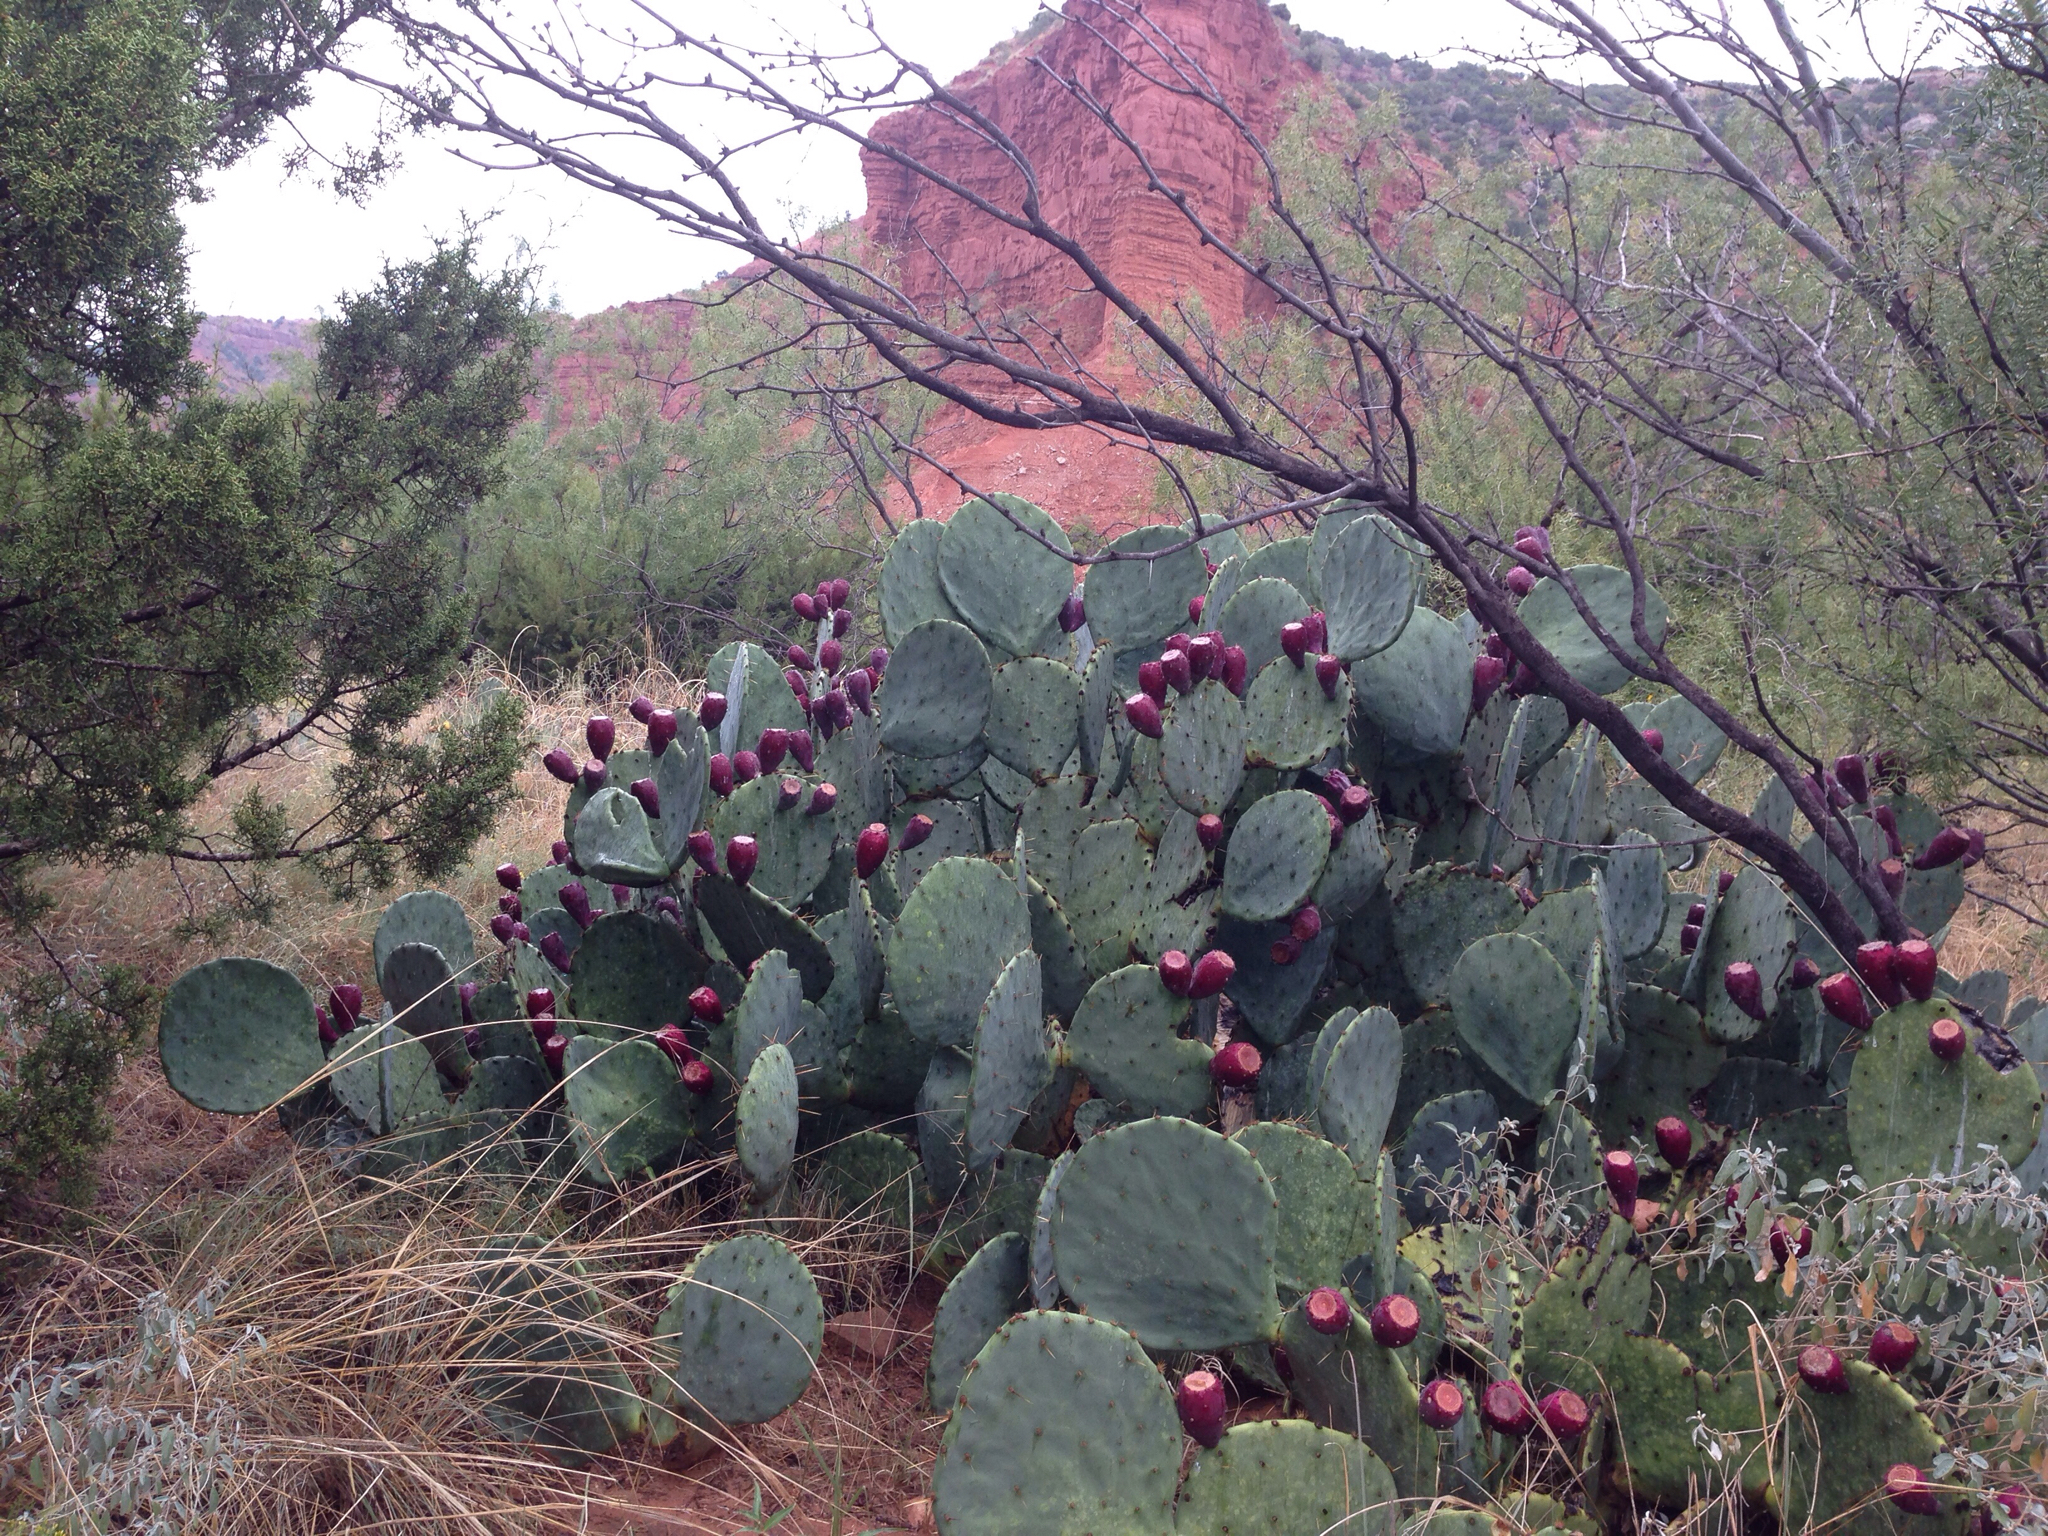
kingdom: Plantae
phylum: Tracheophyta
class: Magnoliopsida
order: Caryophyllales
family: Cactaceae
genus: Opuntia
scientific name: Opuntia orbiculata
